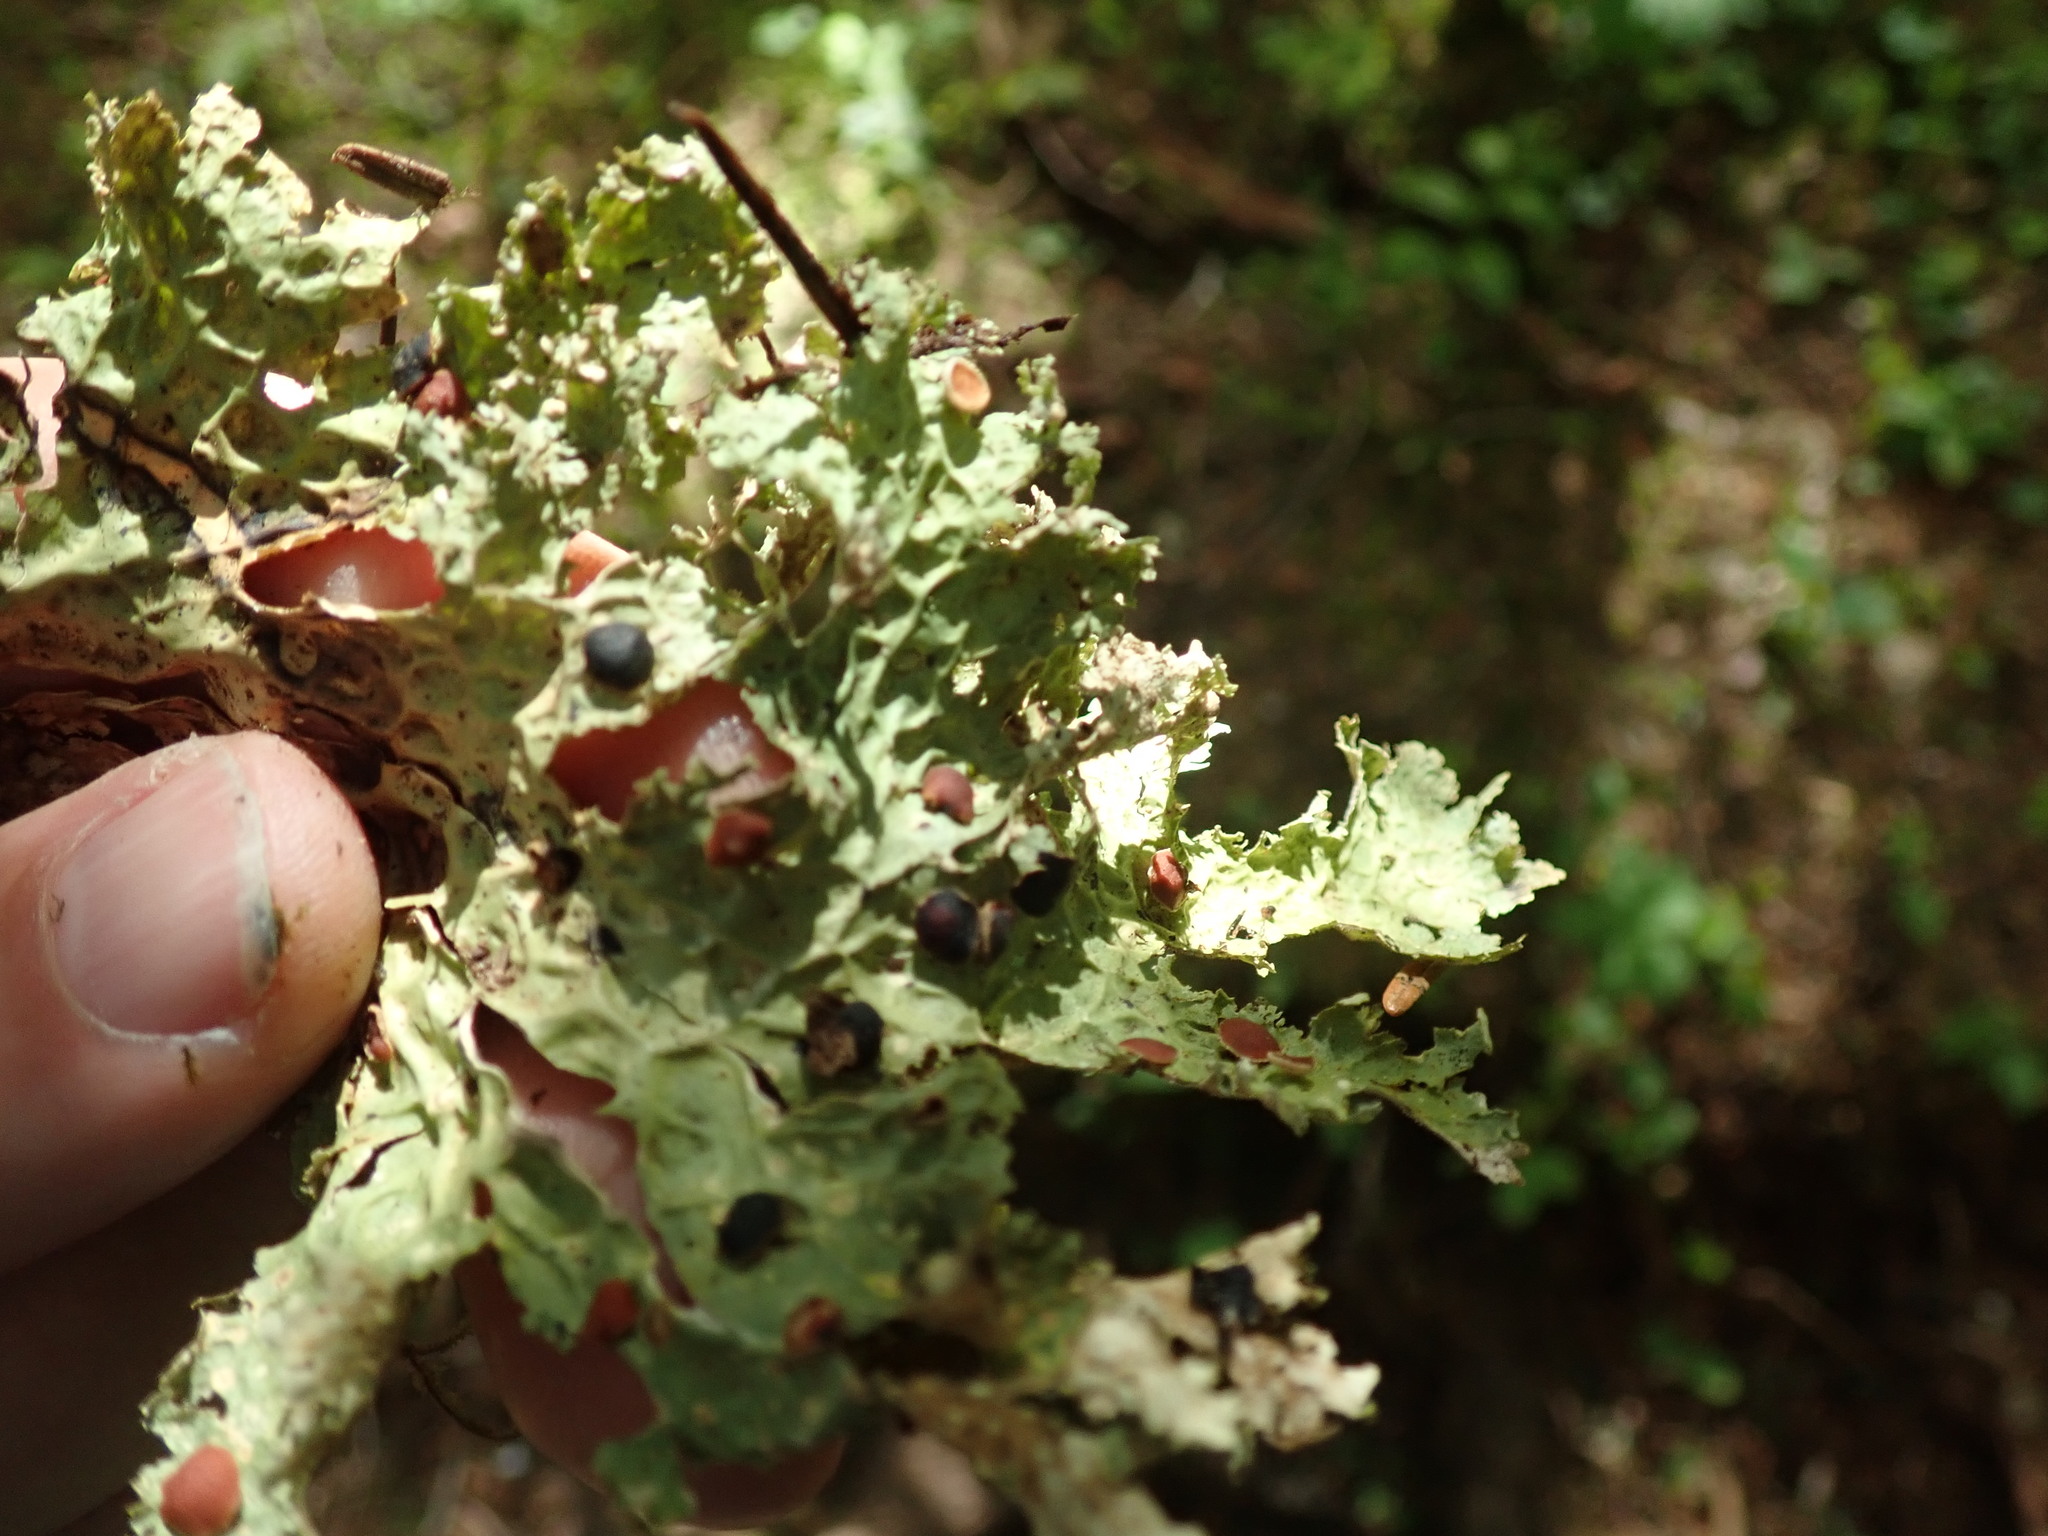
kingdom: Fungi
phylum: Ascomycota
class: Lecanoromycetes
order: Peltigerales
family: Lobariaceae
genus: Lobaria
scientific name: Lobaria oregana
